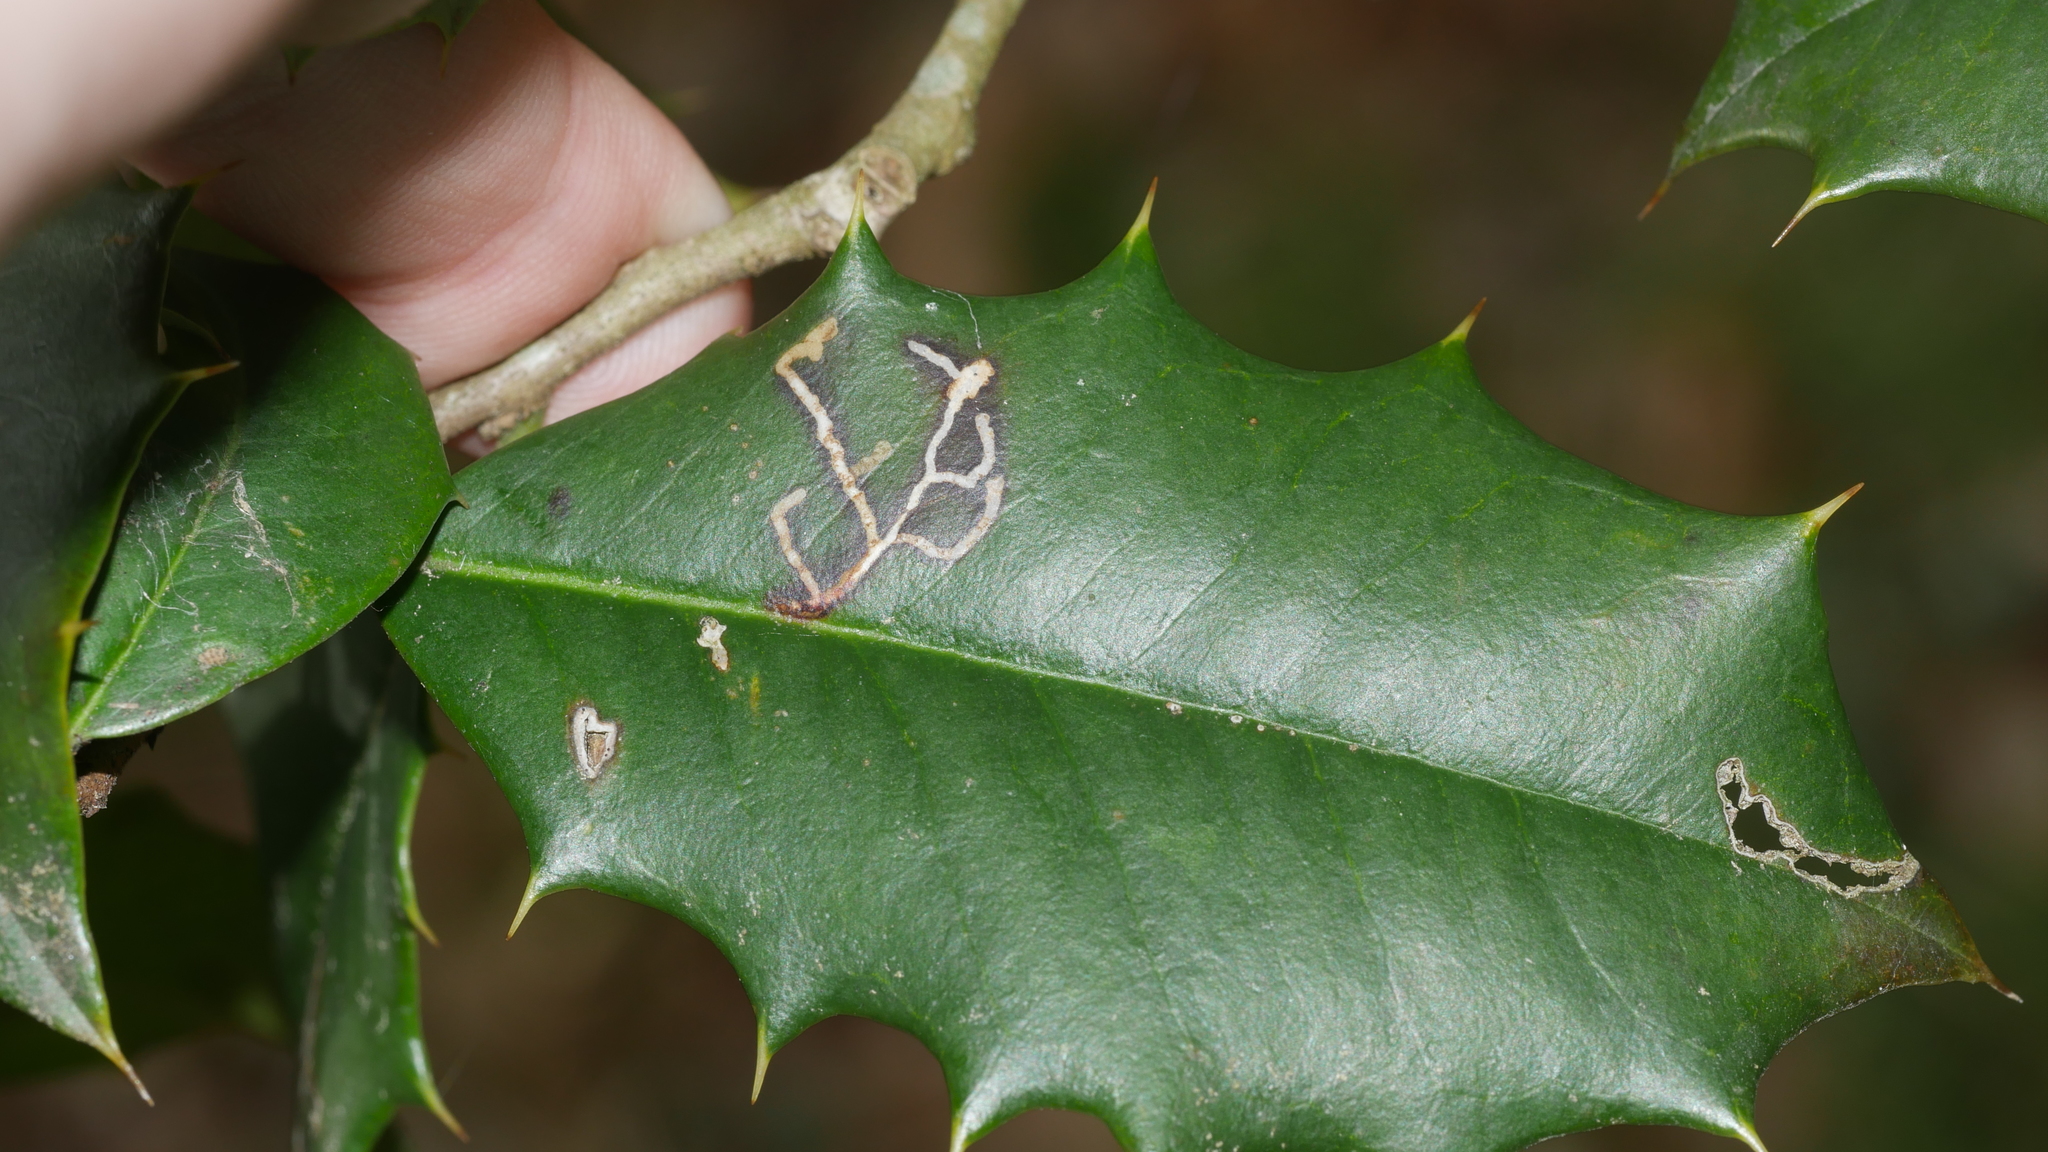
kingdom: Animalia
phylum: Arthropoda
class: Insecta
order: Lepidoptera
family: Tortricidae
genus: Rhopobota
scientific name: Rhopobota
